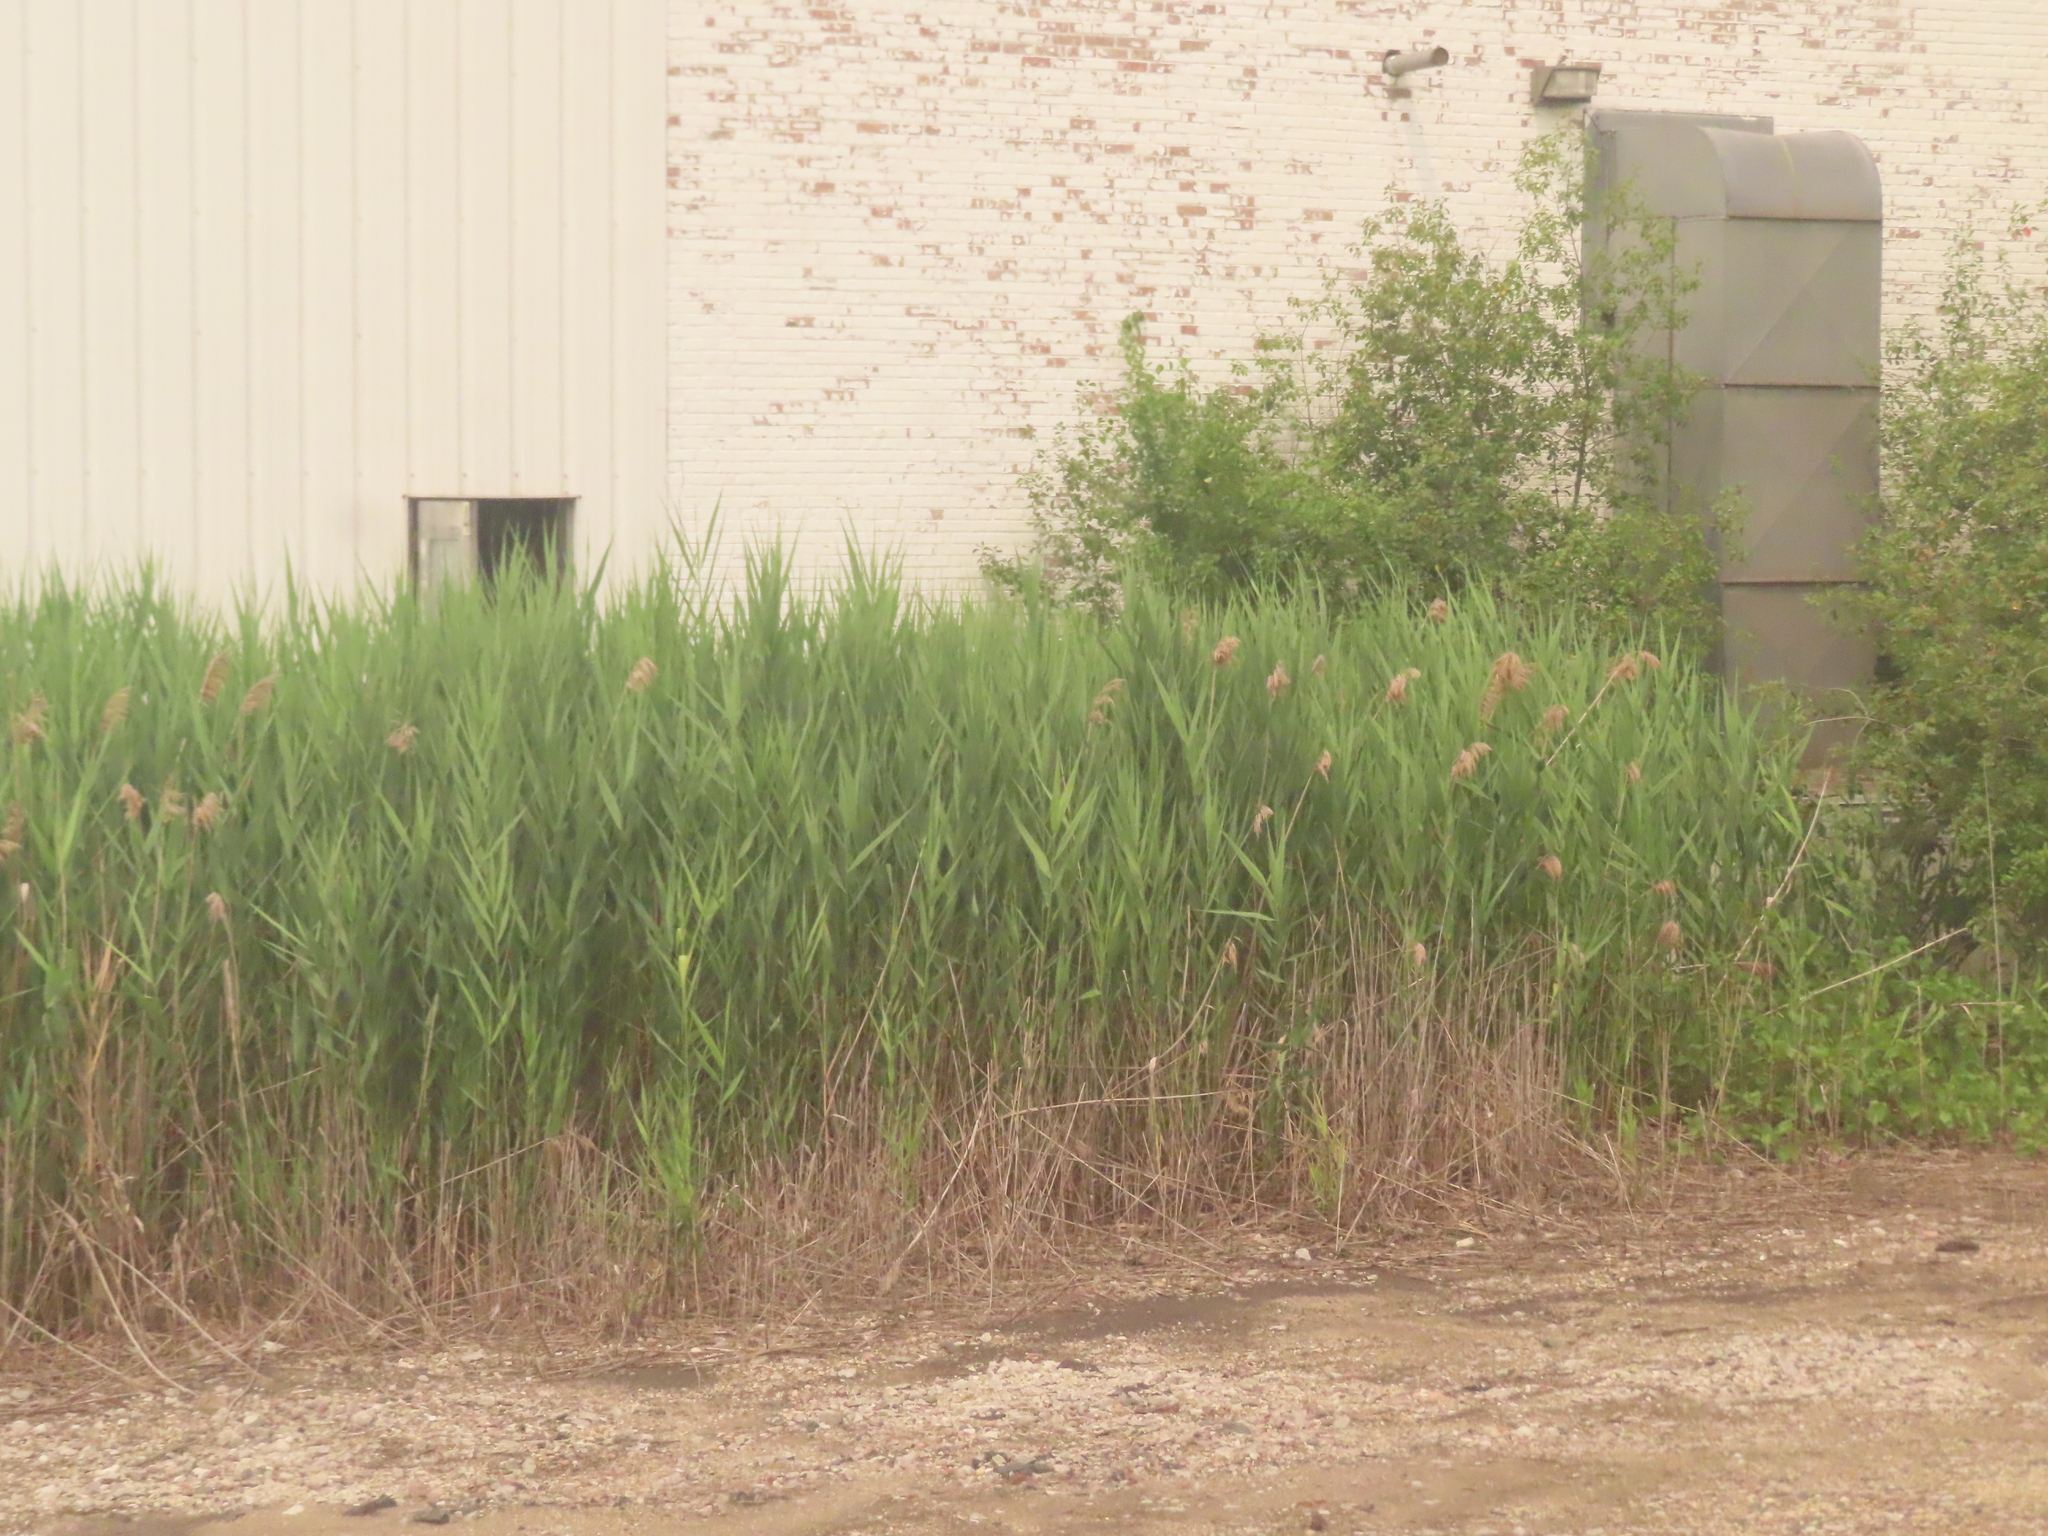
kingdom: Plantae
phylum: Tracheophyta
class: Liliopsida
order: Poales
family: Poaceae
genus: Phragmites
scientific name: Phragmites australis
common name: Common reed
